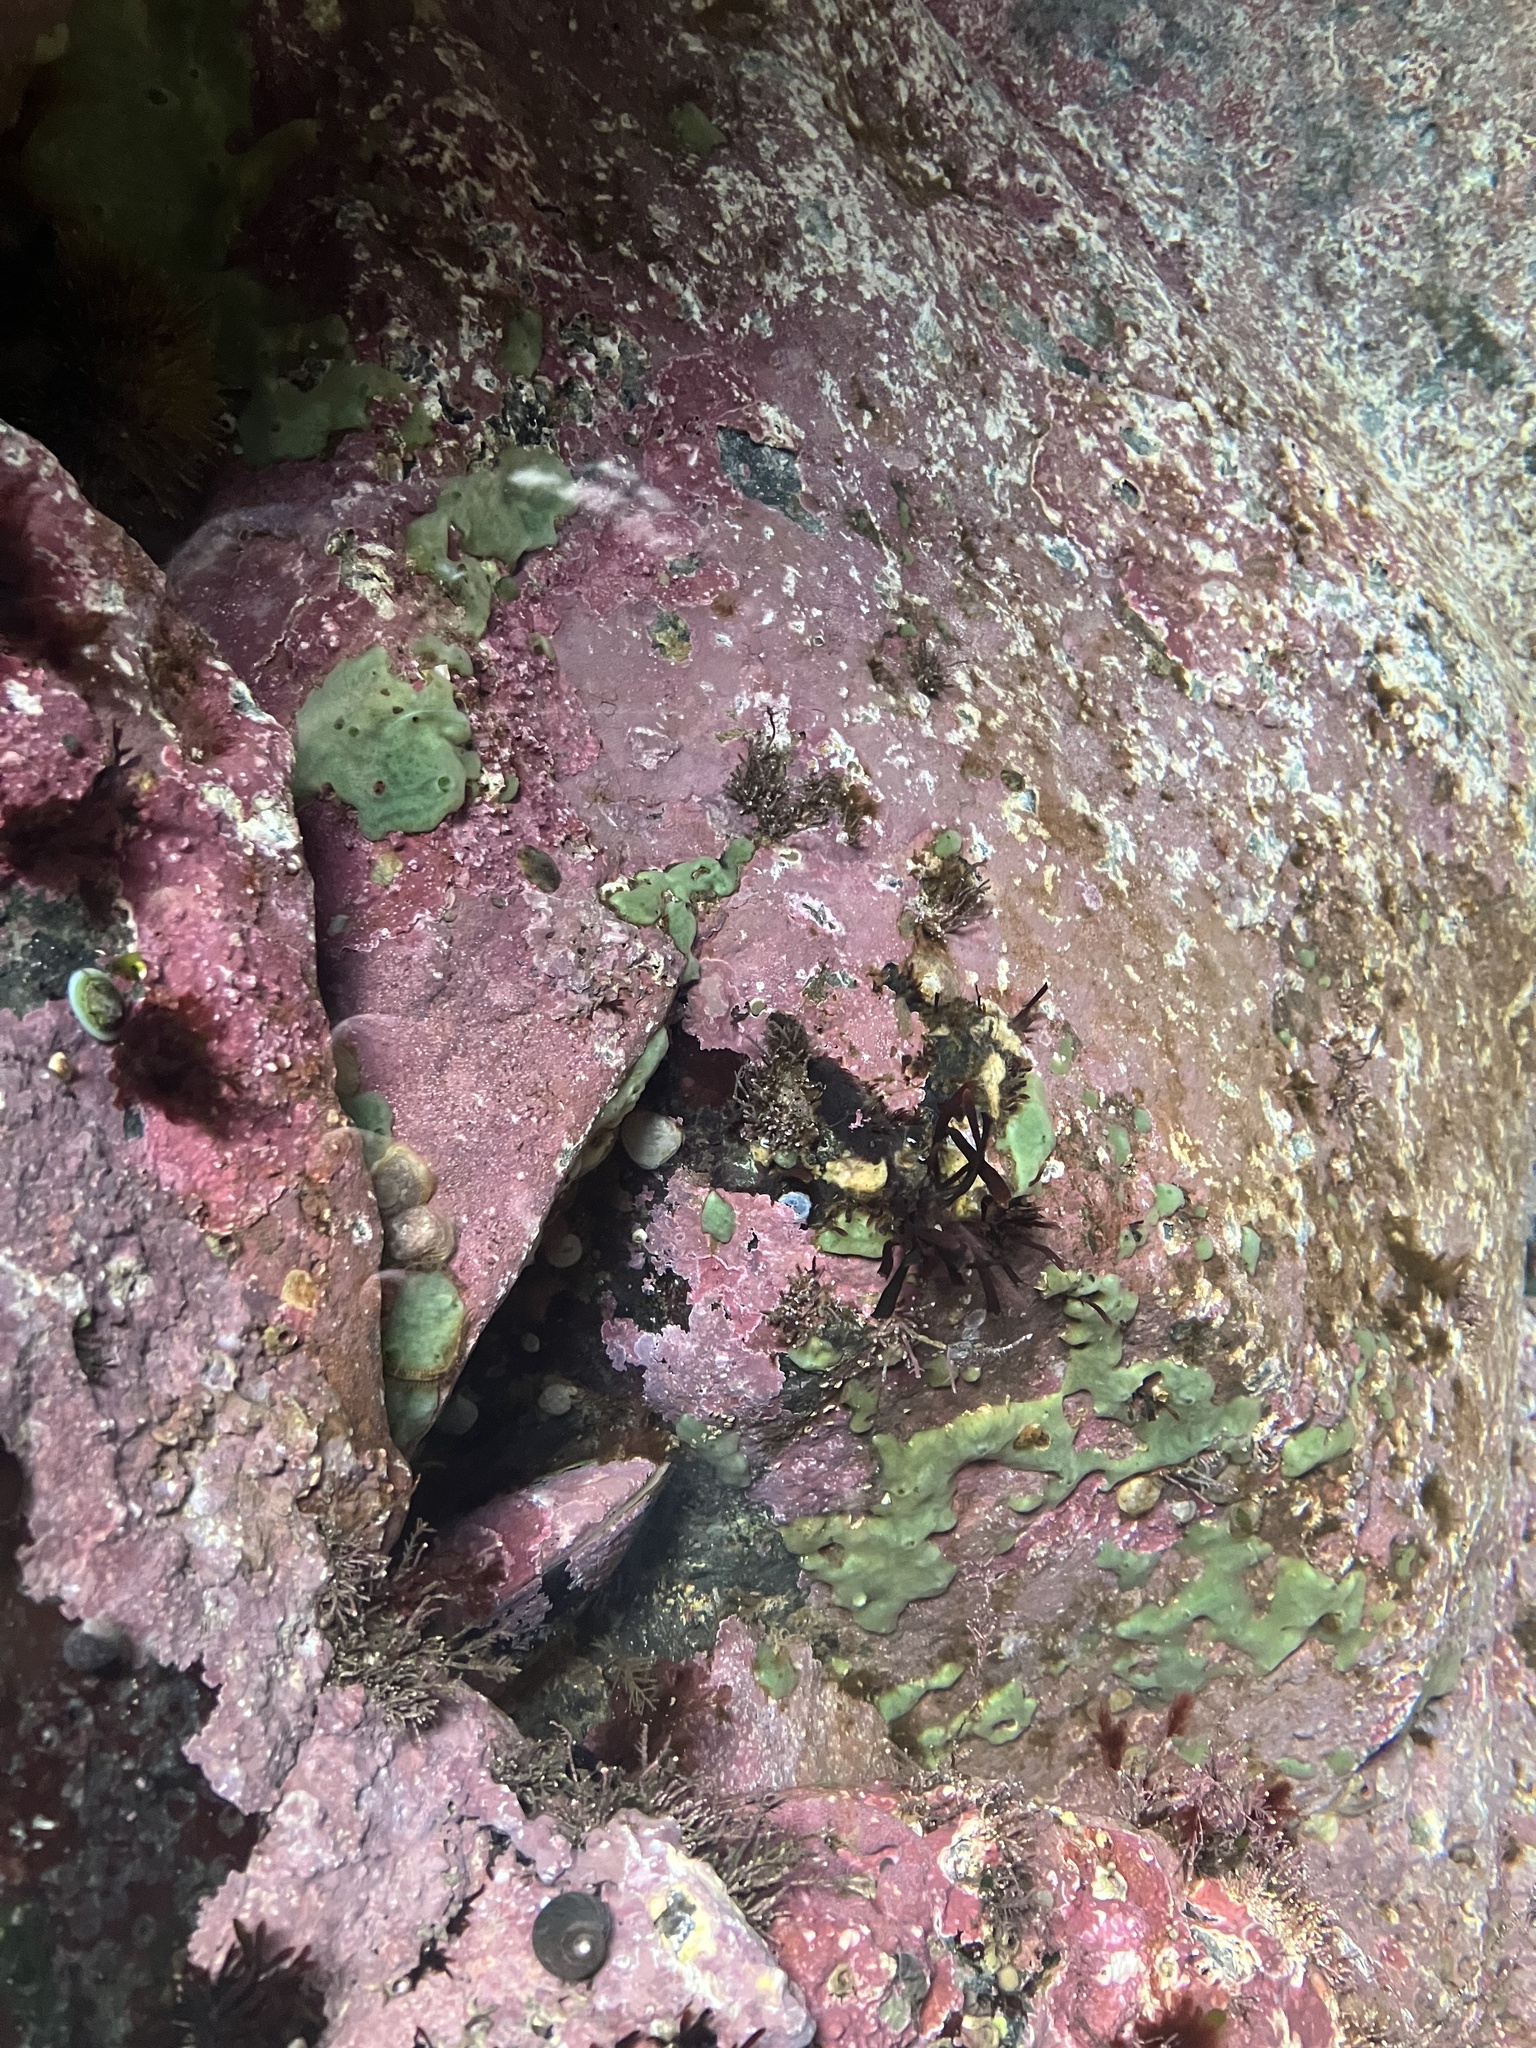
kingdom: Animalia
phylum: Porifera
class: Demospongiae
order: Suberitida
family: Halichondriidae
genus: Halichondria
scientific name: Halichondria panicea
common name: Breadcrumb sponge
